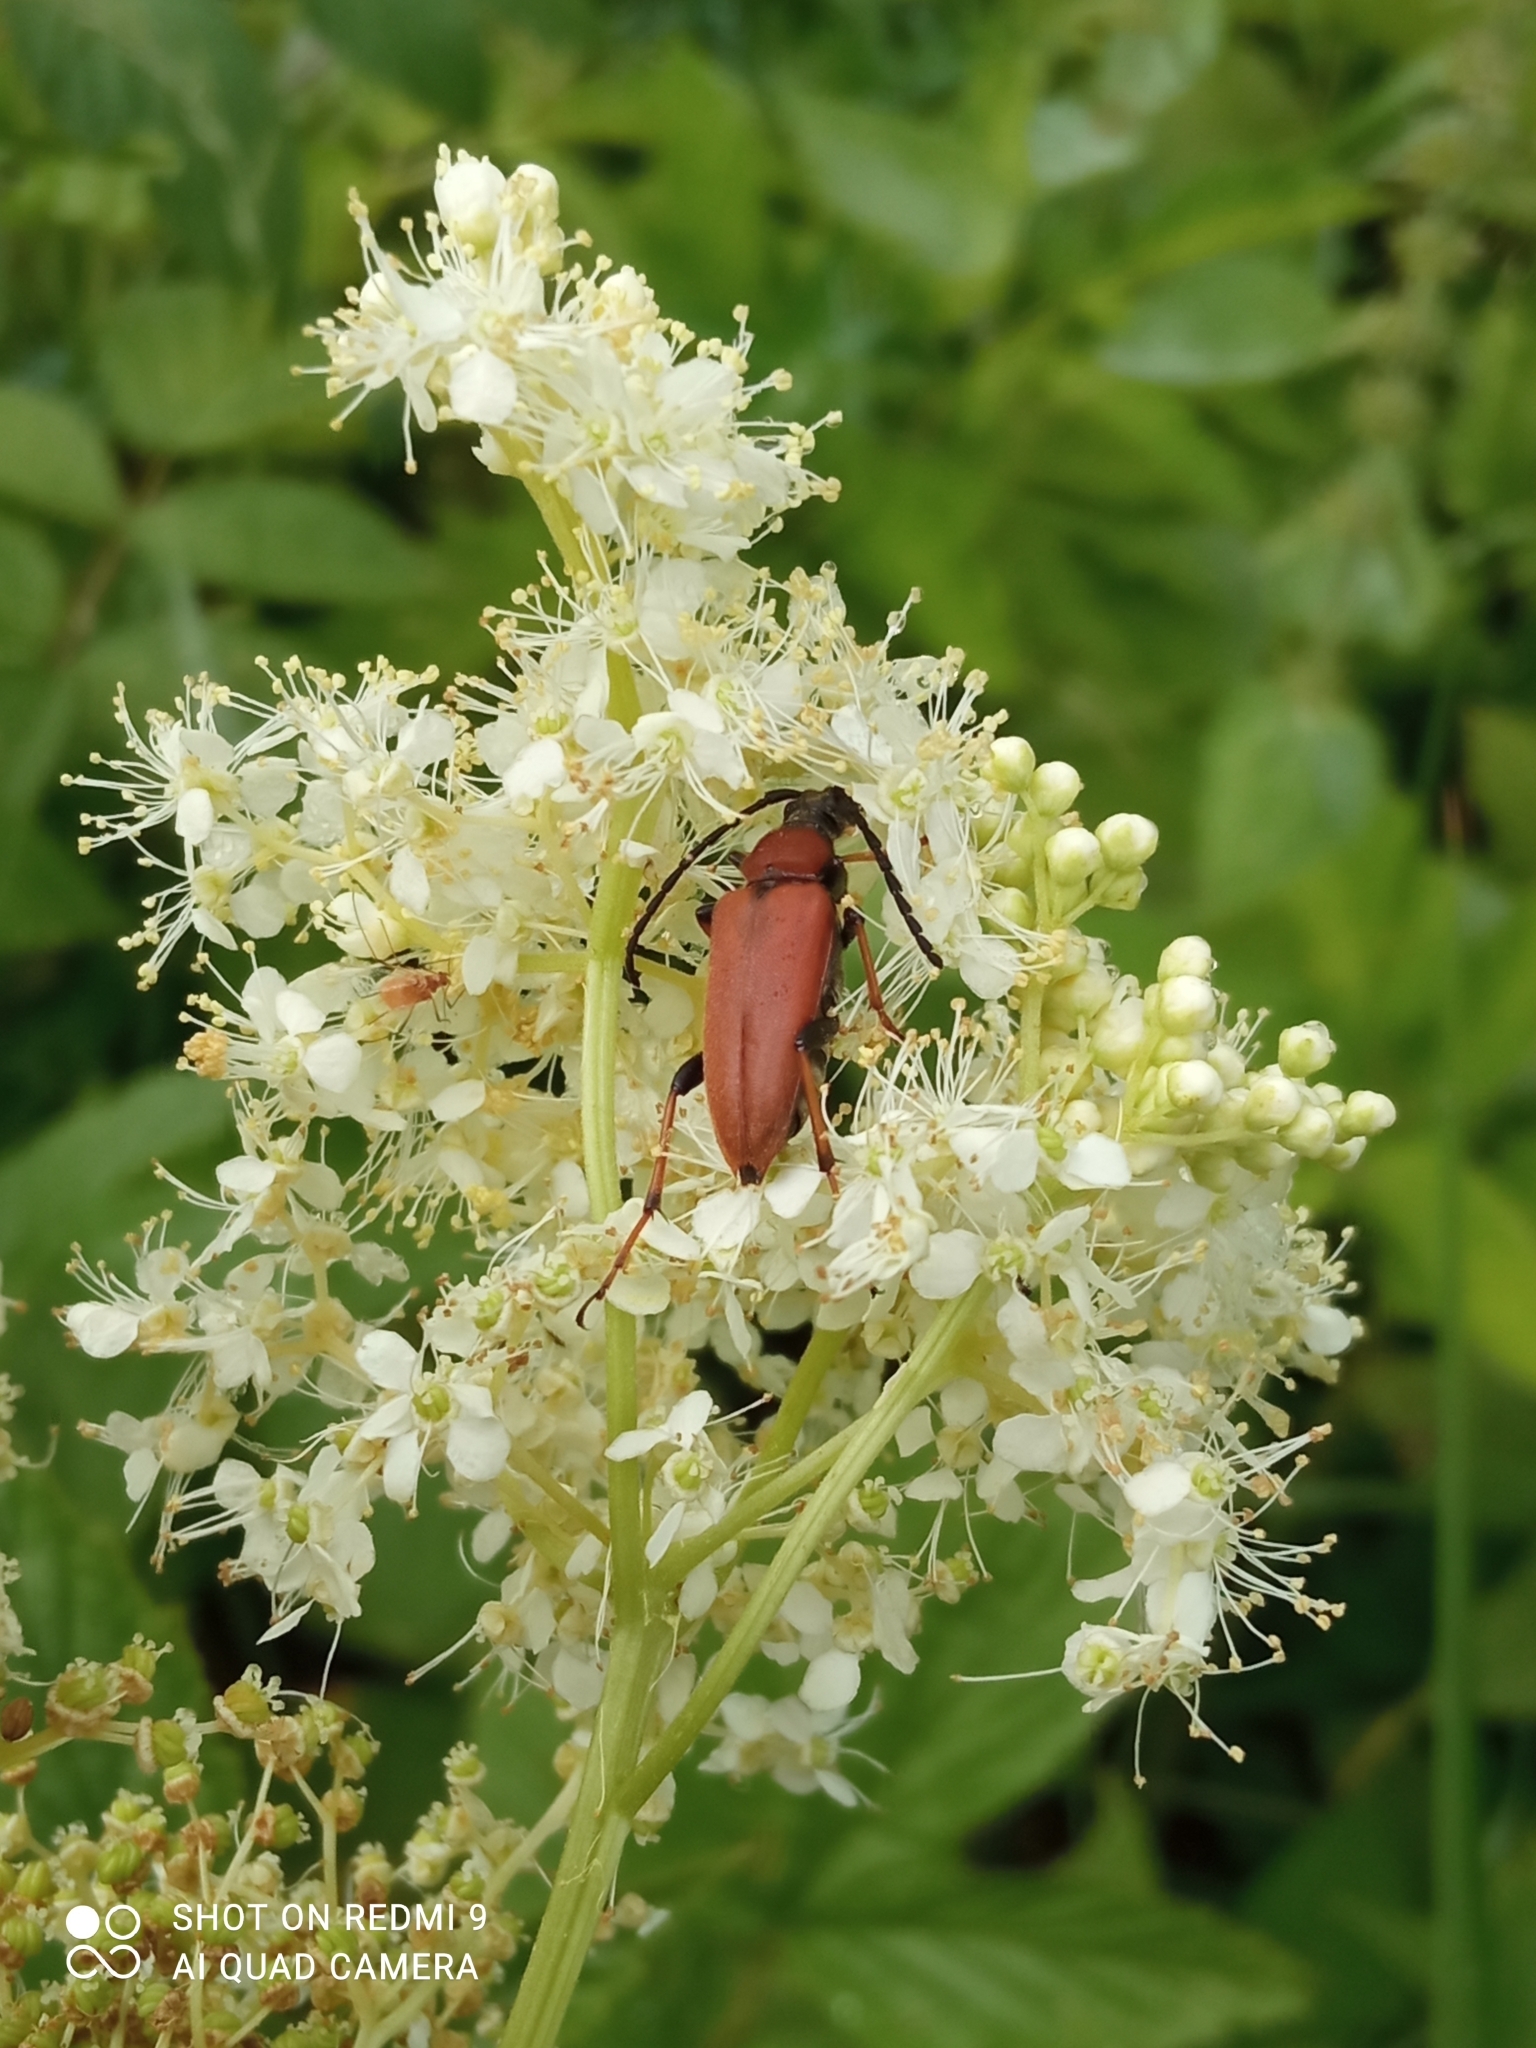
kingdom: Animalia
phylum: Arthropoda
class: Insecta
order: Coleoptera
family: Cerambycidae
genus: Stictoleptura
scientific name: Stictoleptura rubra
